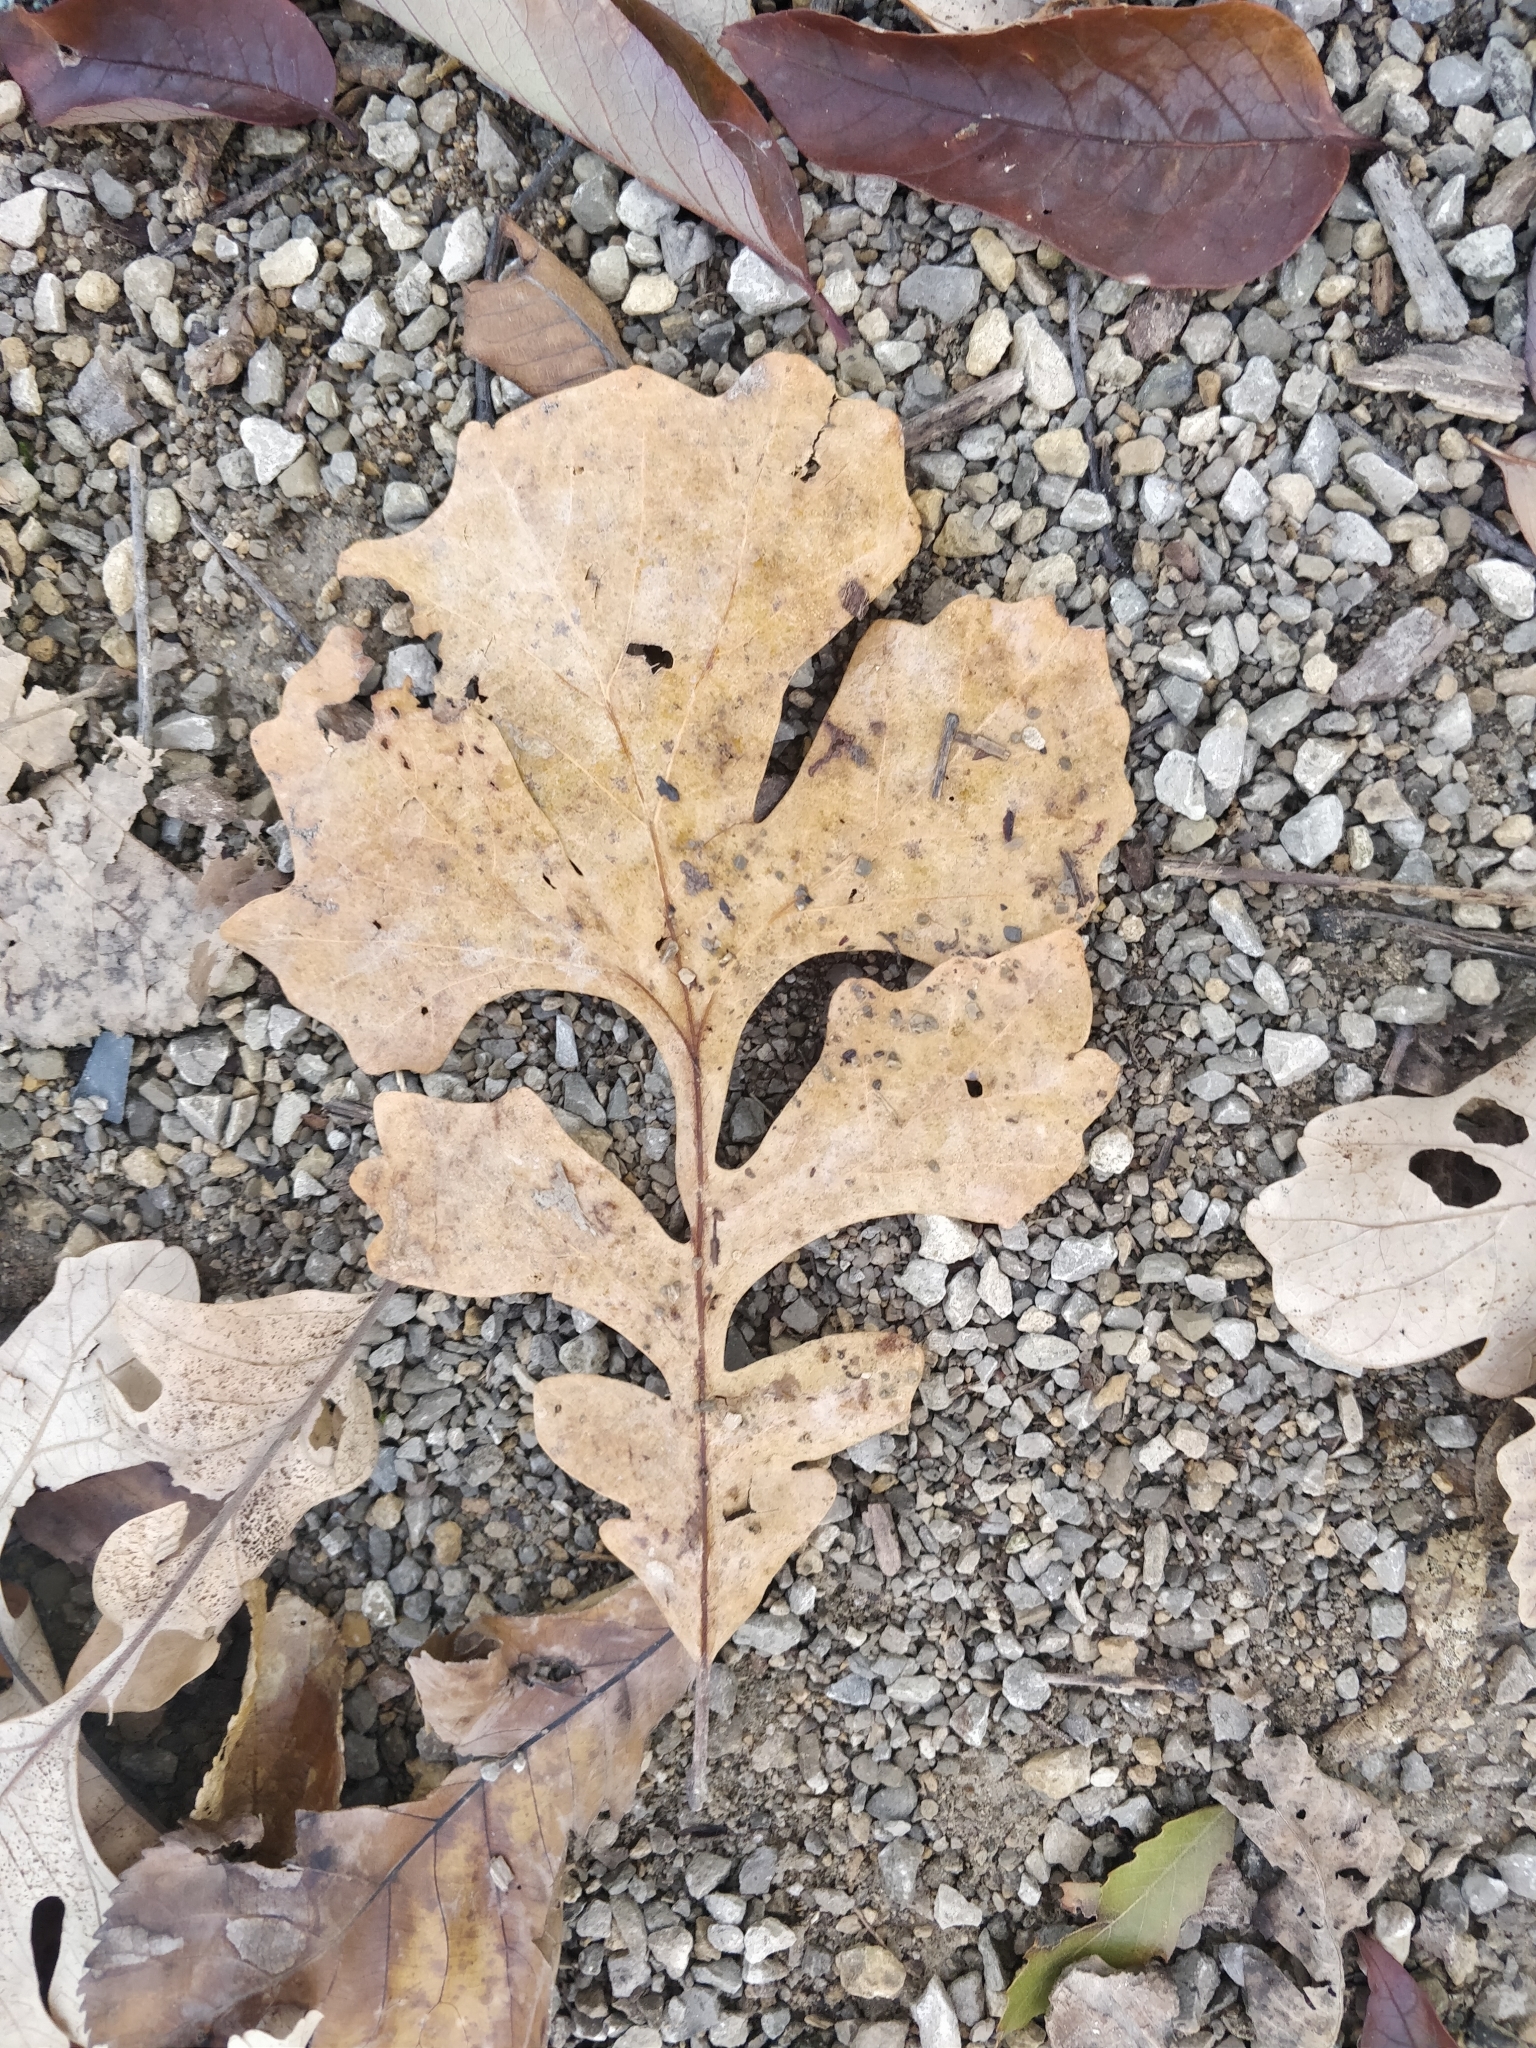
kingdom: Plantae
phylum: Tracheophyta
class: Magnoliopsida
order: Fagales
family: Fagaceae
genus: Quercus
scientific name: Quercus macrocarpa
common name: Bur oak
